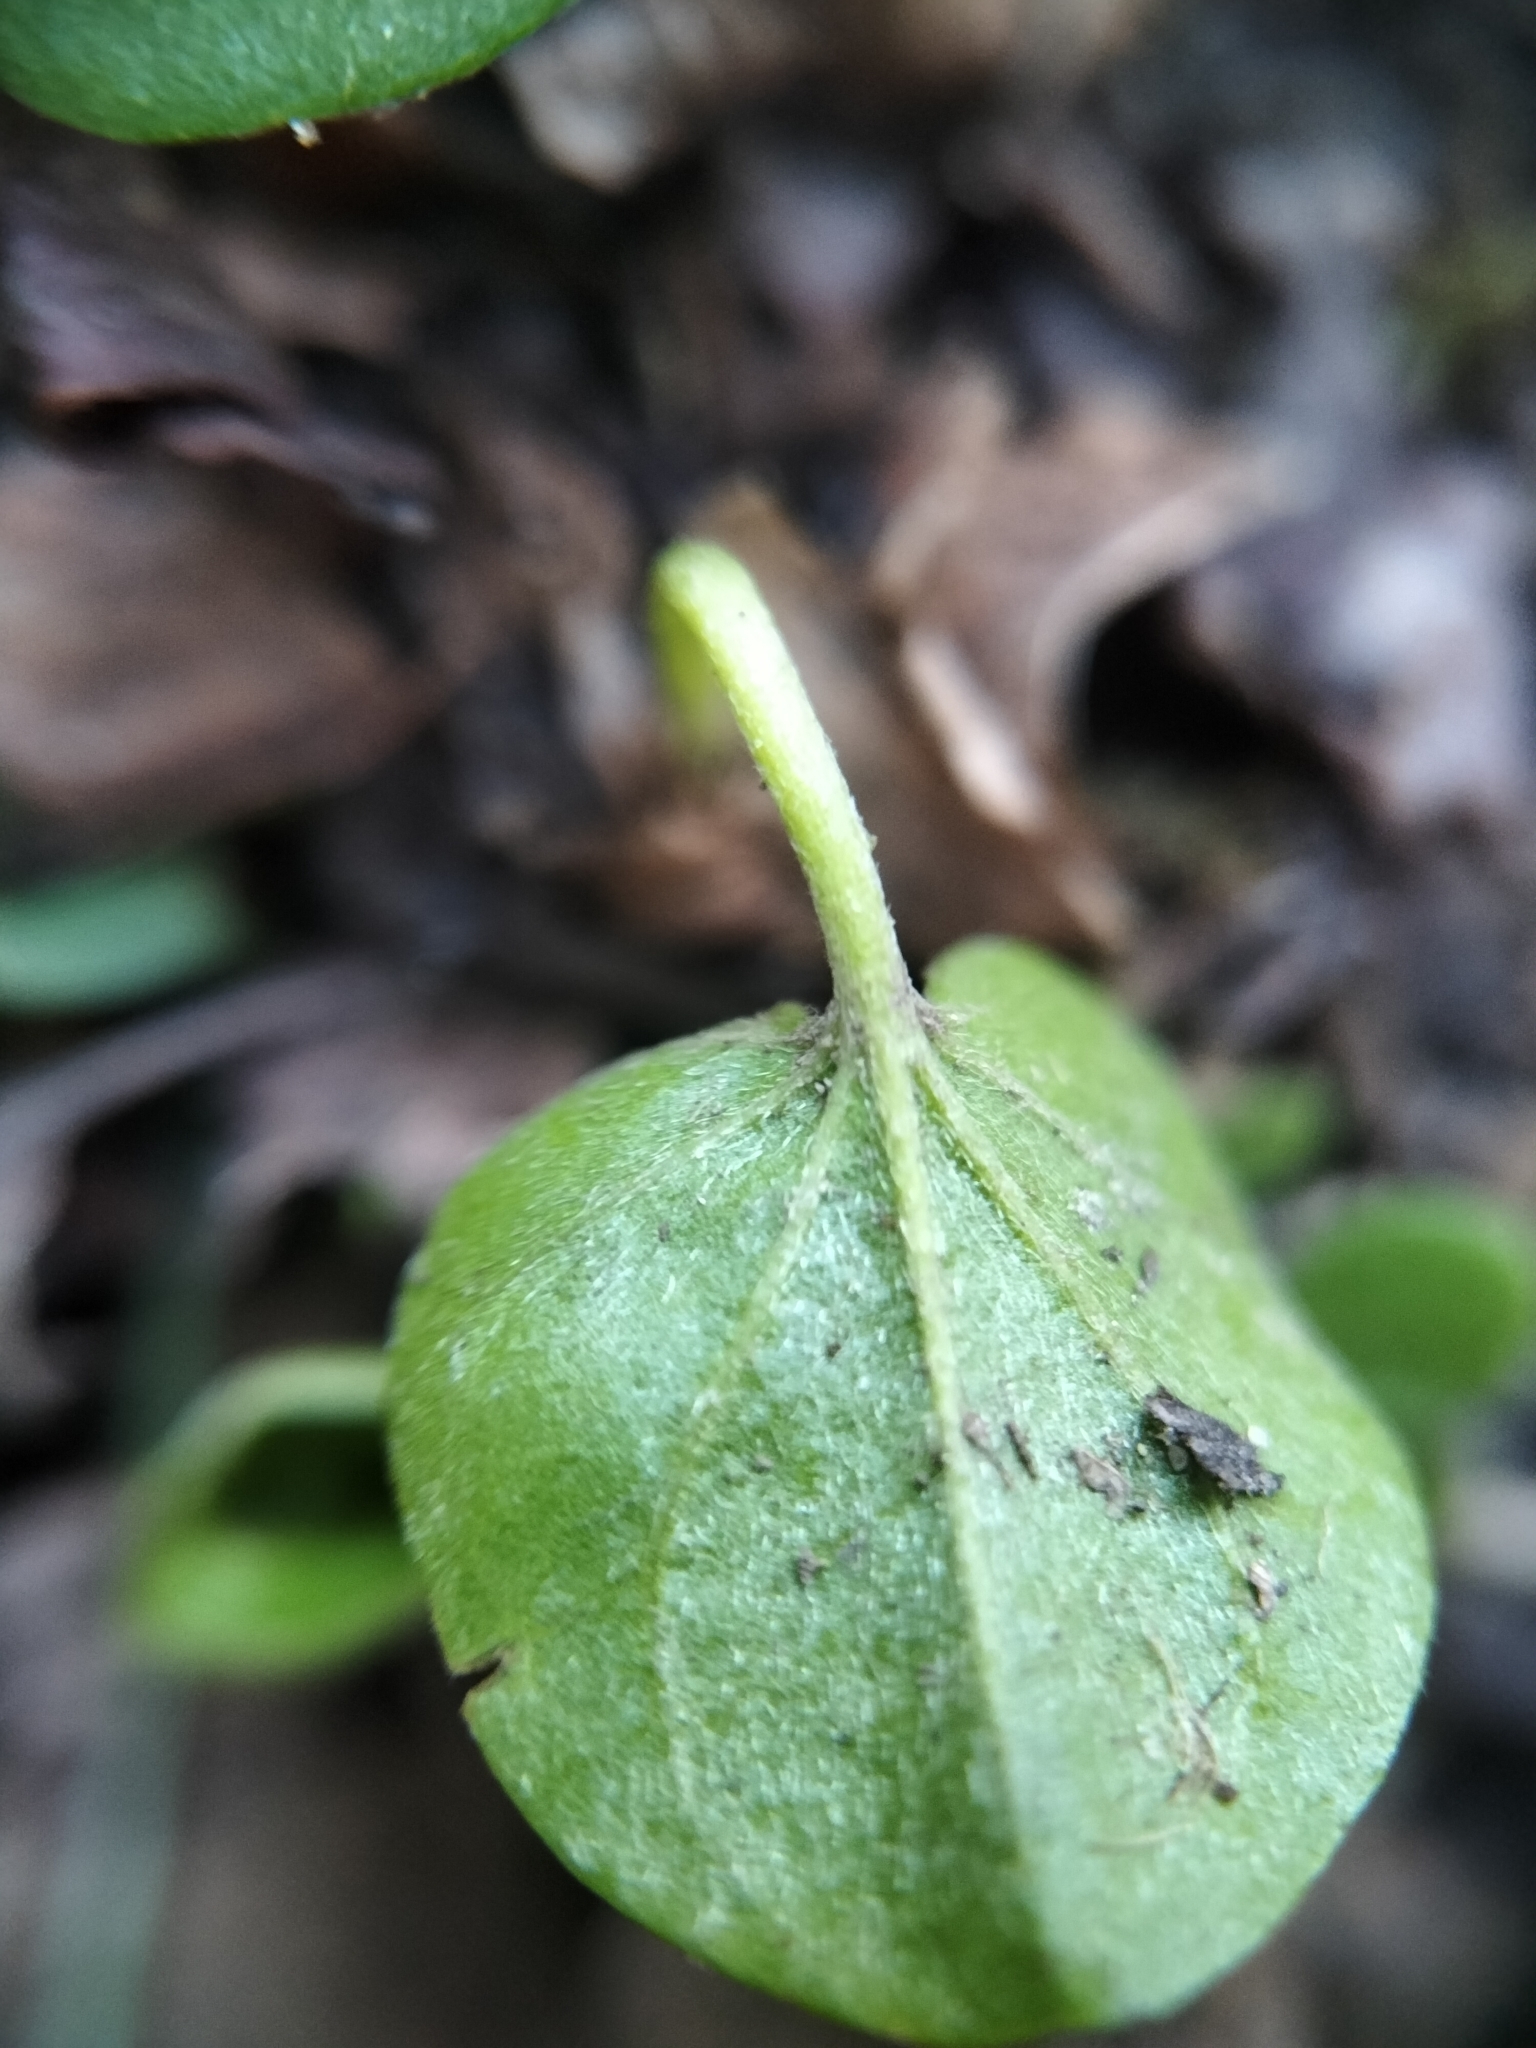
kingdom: Plantae
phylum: Tracheophyta
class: Magnoliopsida
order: Solanales
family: Convolvulaceae
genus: Dichondra
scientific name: Dichondra micrantha
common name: Kidneyweed
